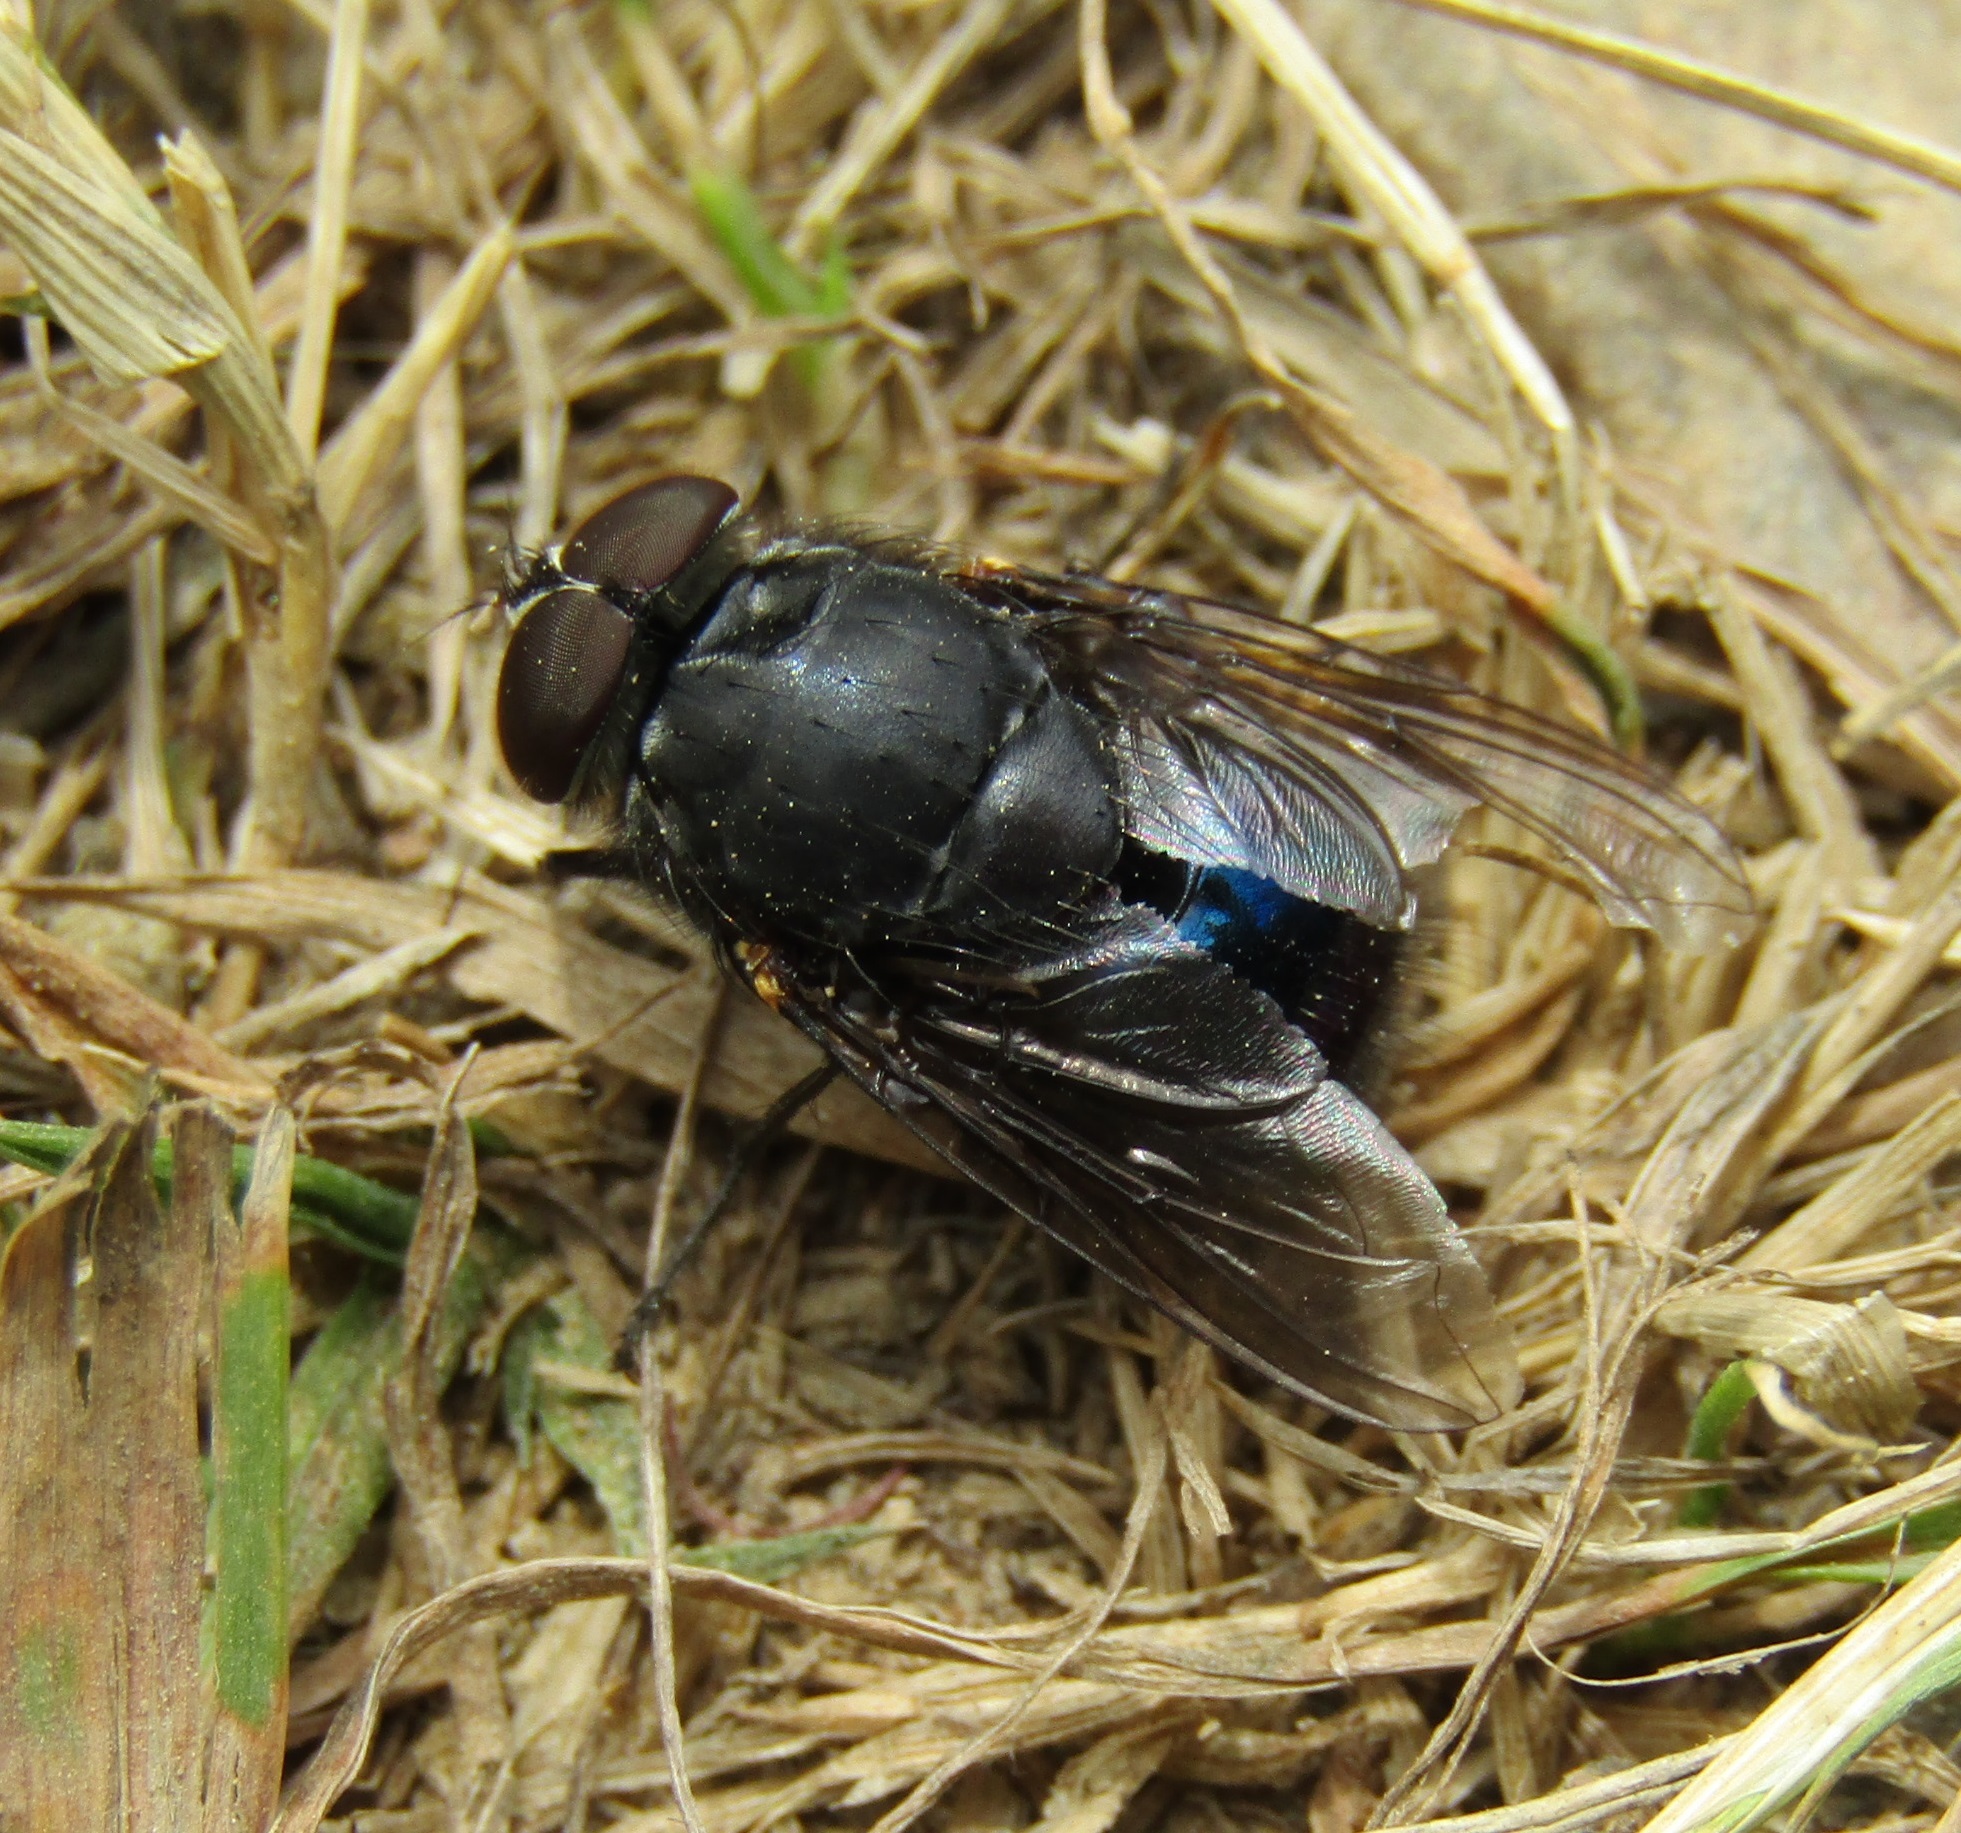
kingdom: Animalia
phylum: Arthropoda
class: Insecta
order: Diptera
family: Calliphoridae
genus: Calliphora
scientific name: Calliphora quadrimaculata
